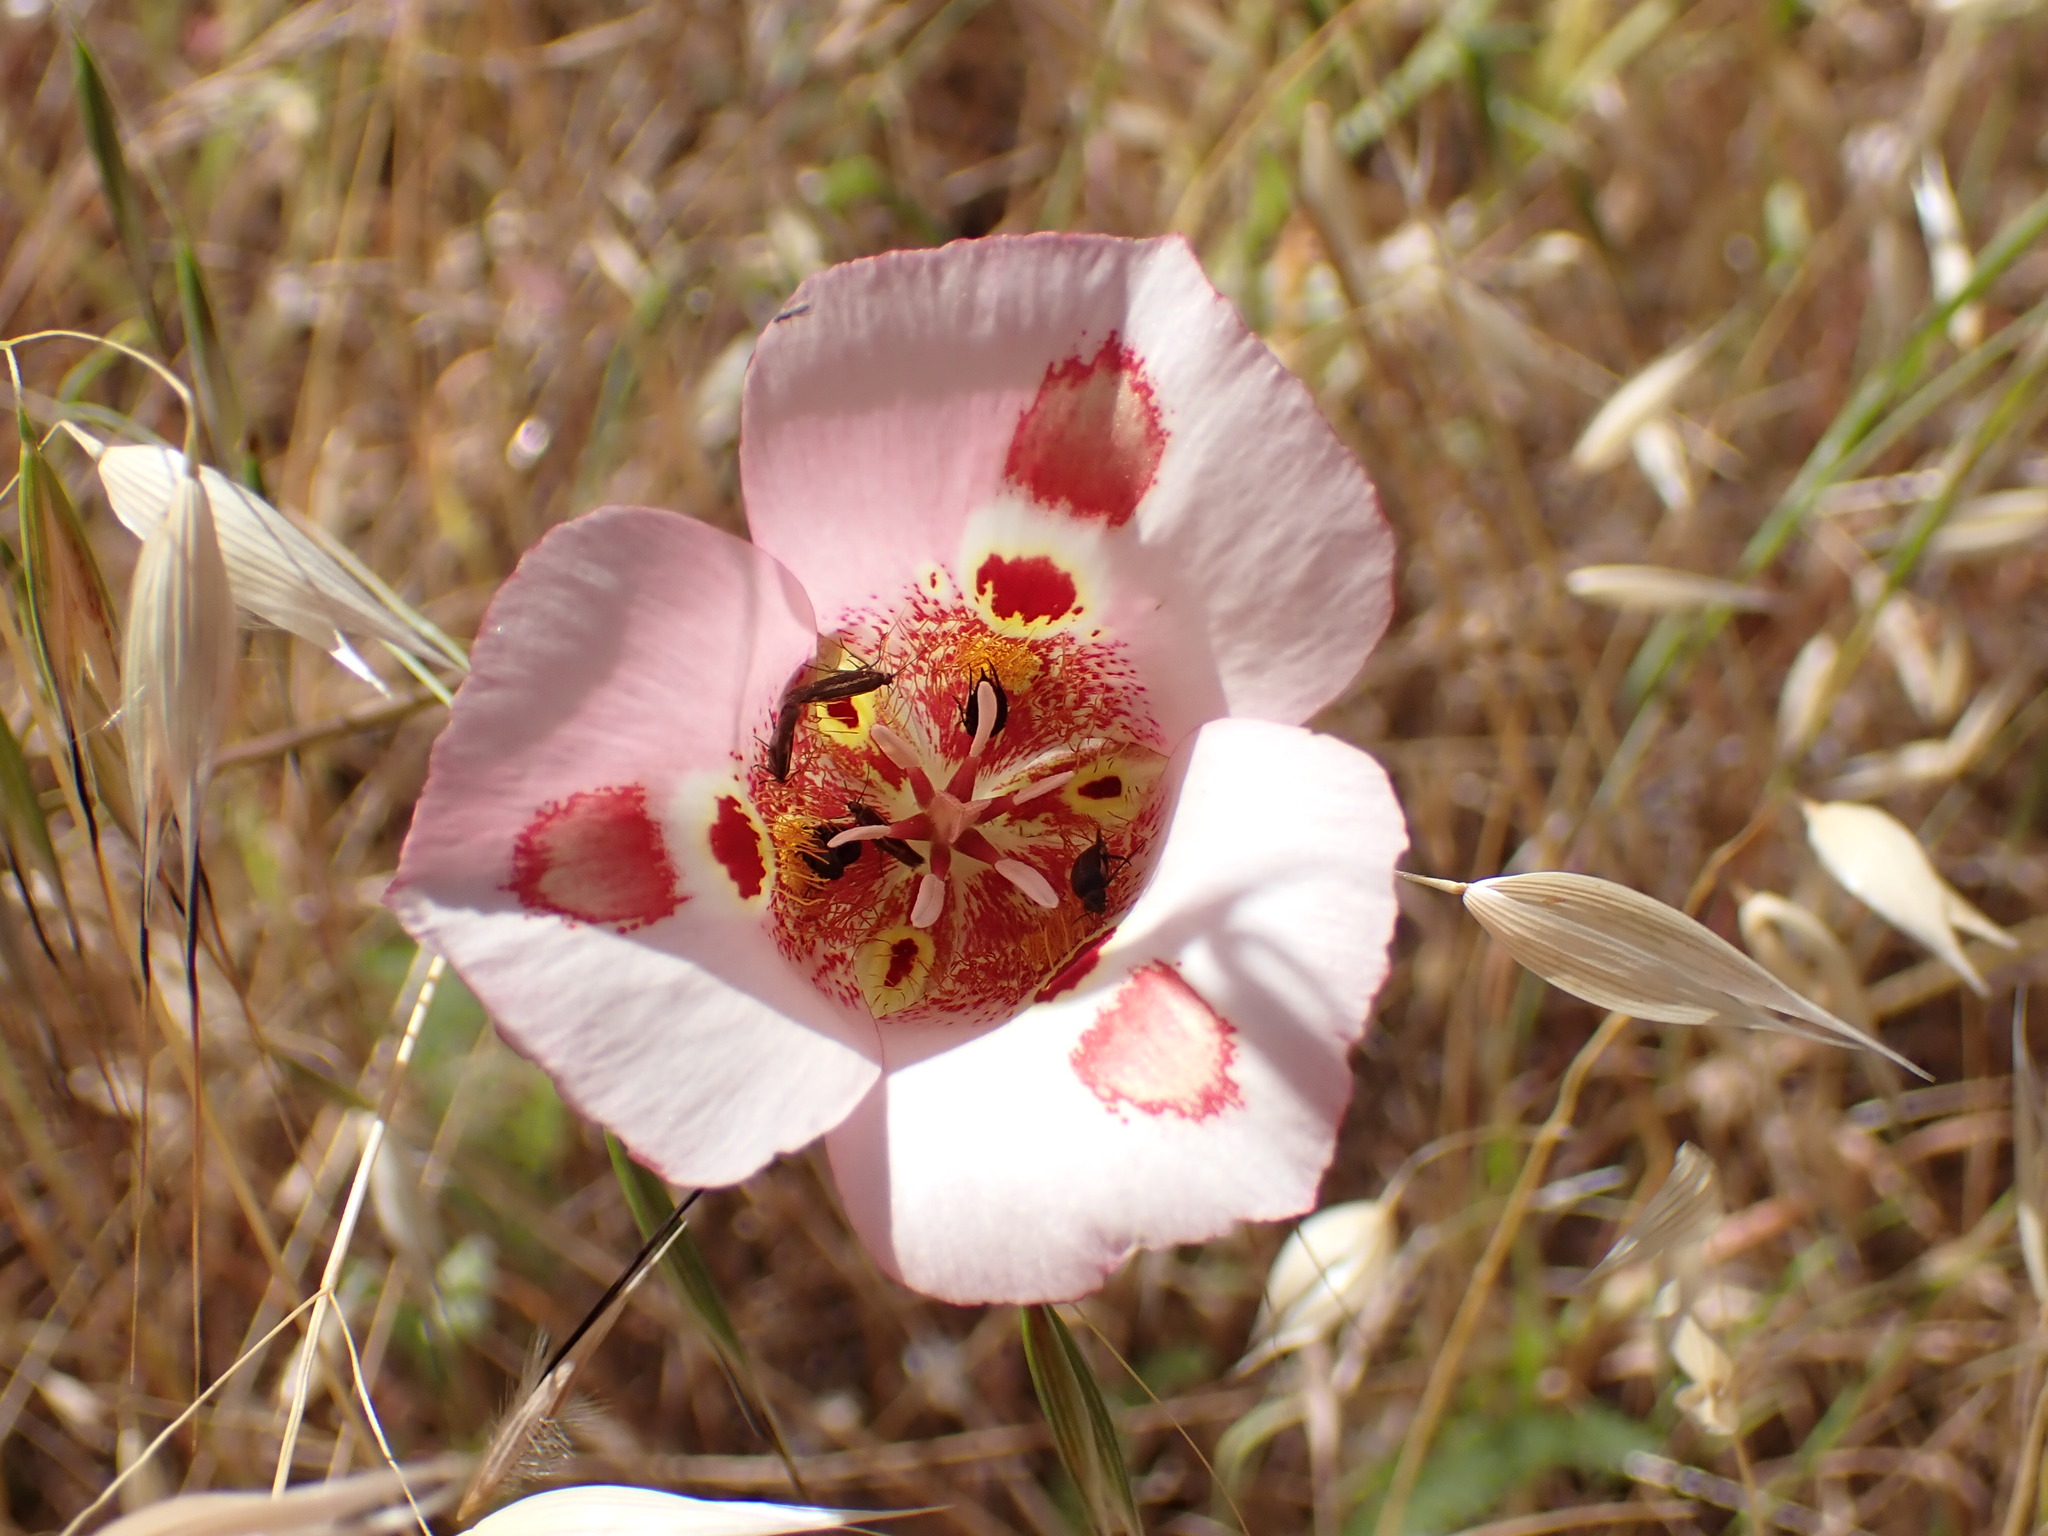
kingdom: Plantae
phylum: Tracheophyta
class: Liliopsida
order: Liliales
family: Liliaceae
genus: Calochortus
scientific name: Calochortus venustus
